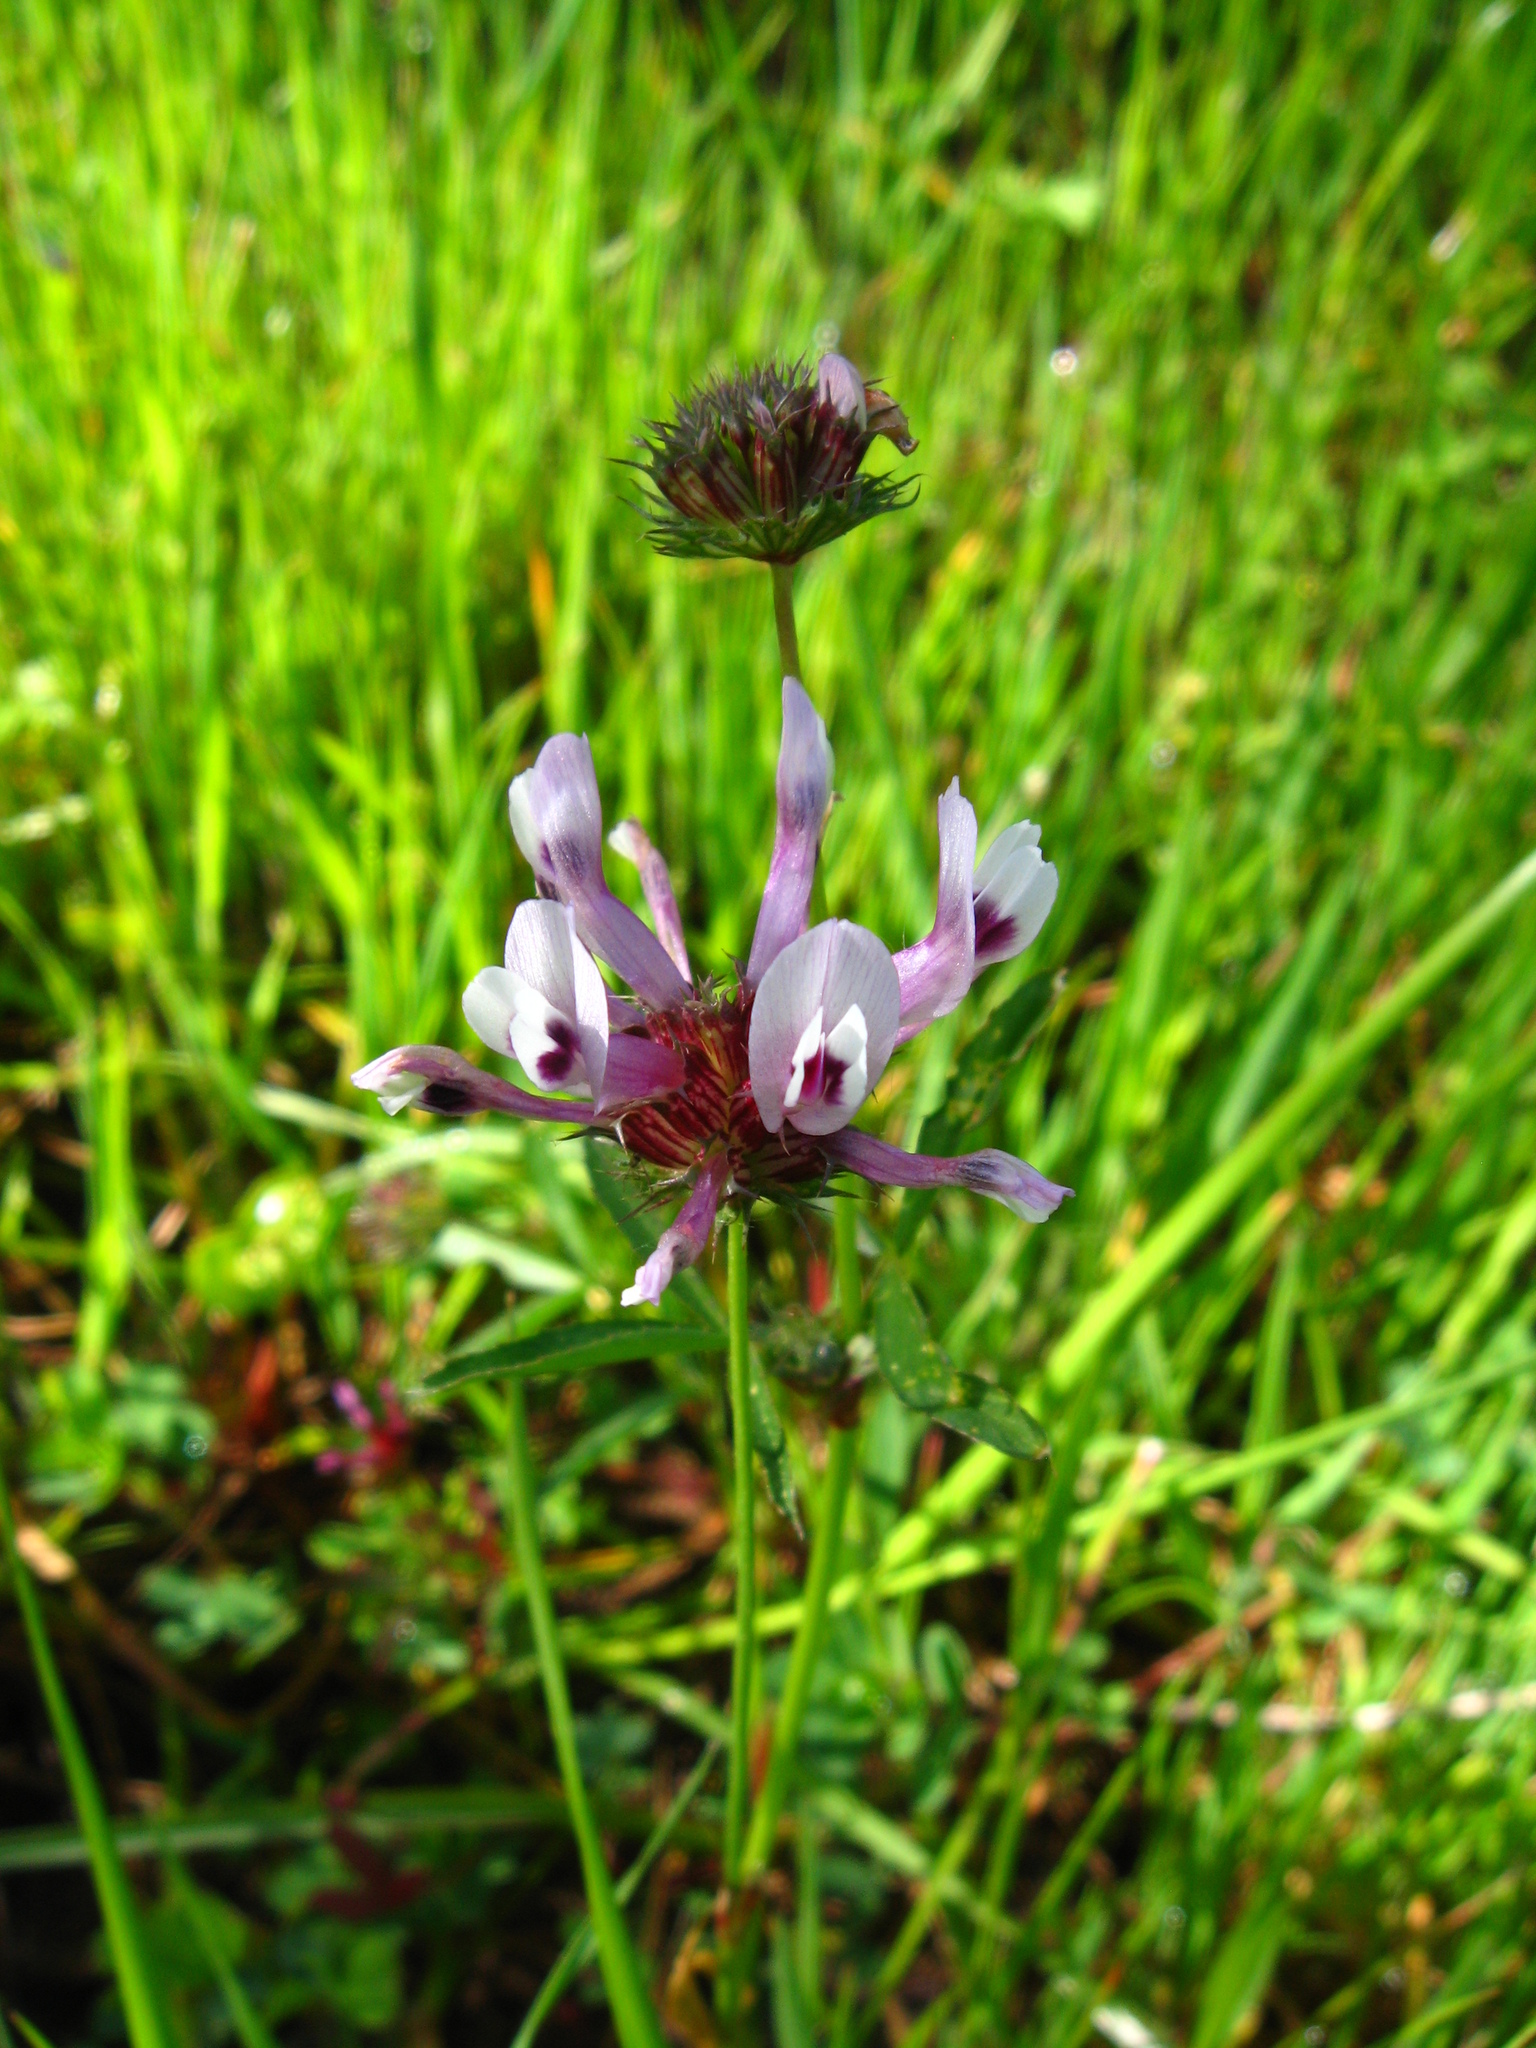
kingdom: Plantae
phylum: Tracheophyta
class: Magnoliopsida
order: Fabales
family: Fabaceae
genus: Trifolium
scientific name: Trifolium willdenovii
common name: Tomcat clover
